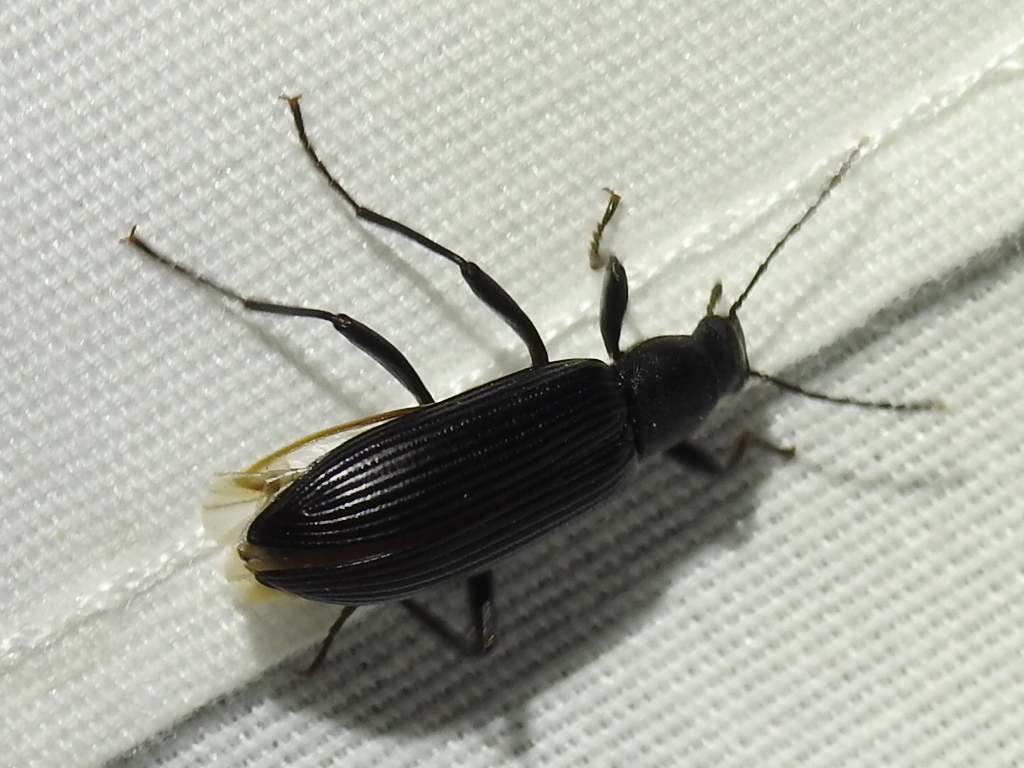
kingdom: Animalia
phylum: Arthropoda
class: Insecta
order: Coleoptera
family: Tenebrionidae
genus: Strongylium
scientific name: Strongylium tenuicolle
